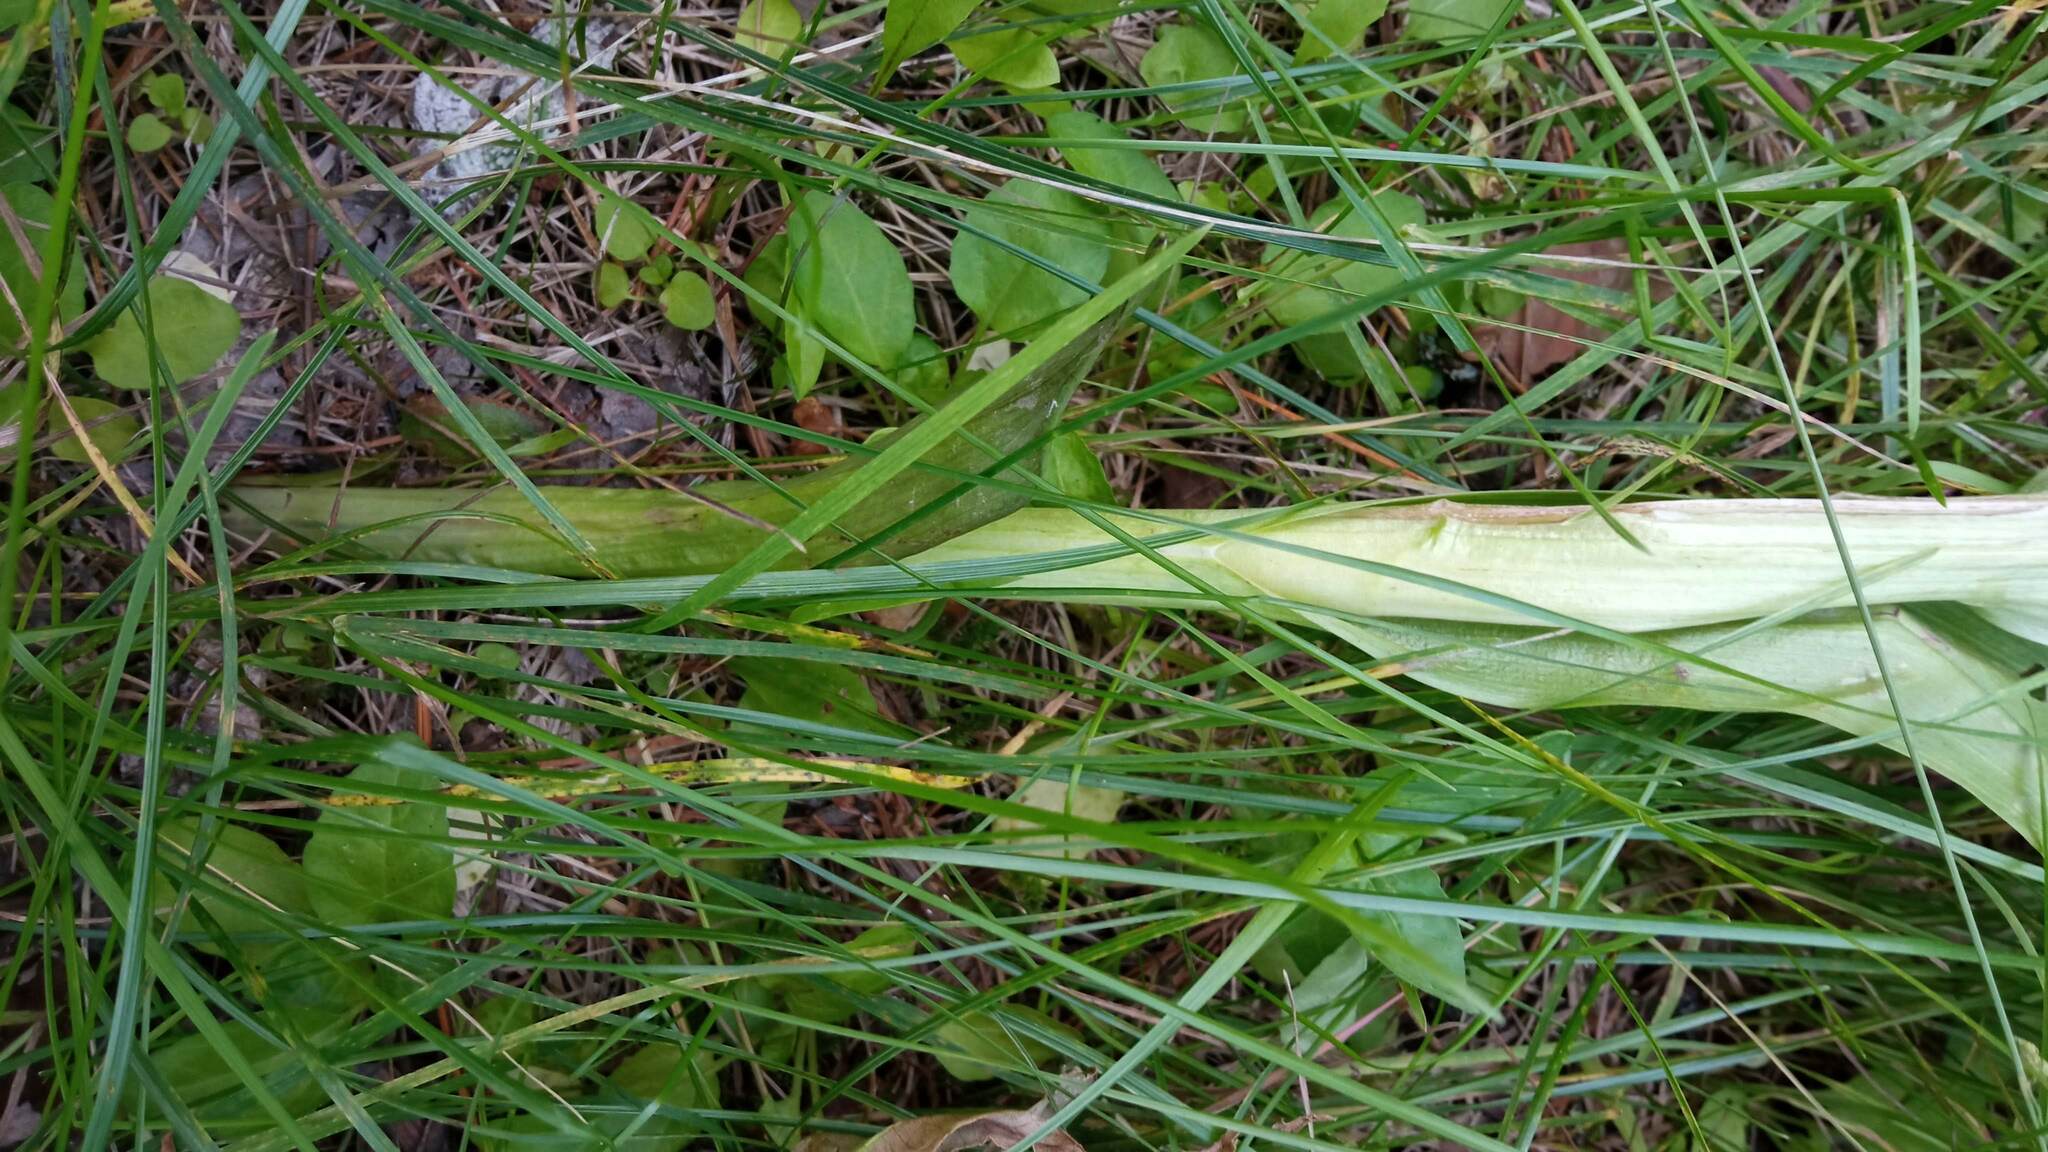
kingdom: Plantae
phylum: Tracheophyta
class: Liliopsida
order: Asparagales
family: Orchidaceae
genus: Dactylorhiza
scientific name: Dactylorhiza incarnata
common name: Early marsh-orchid
